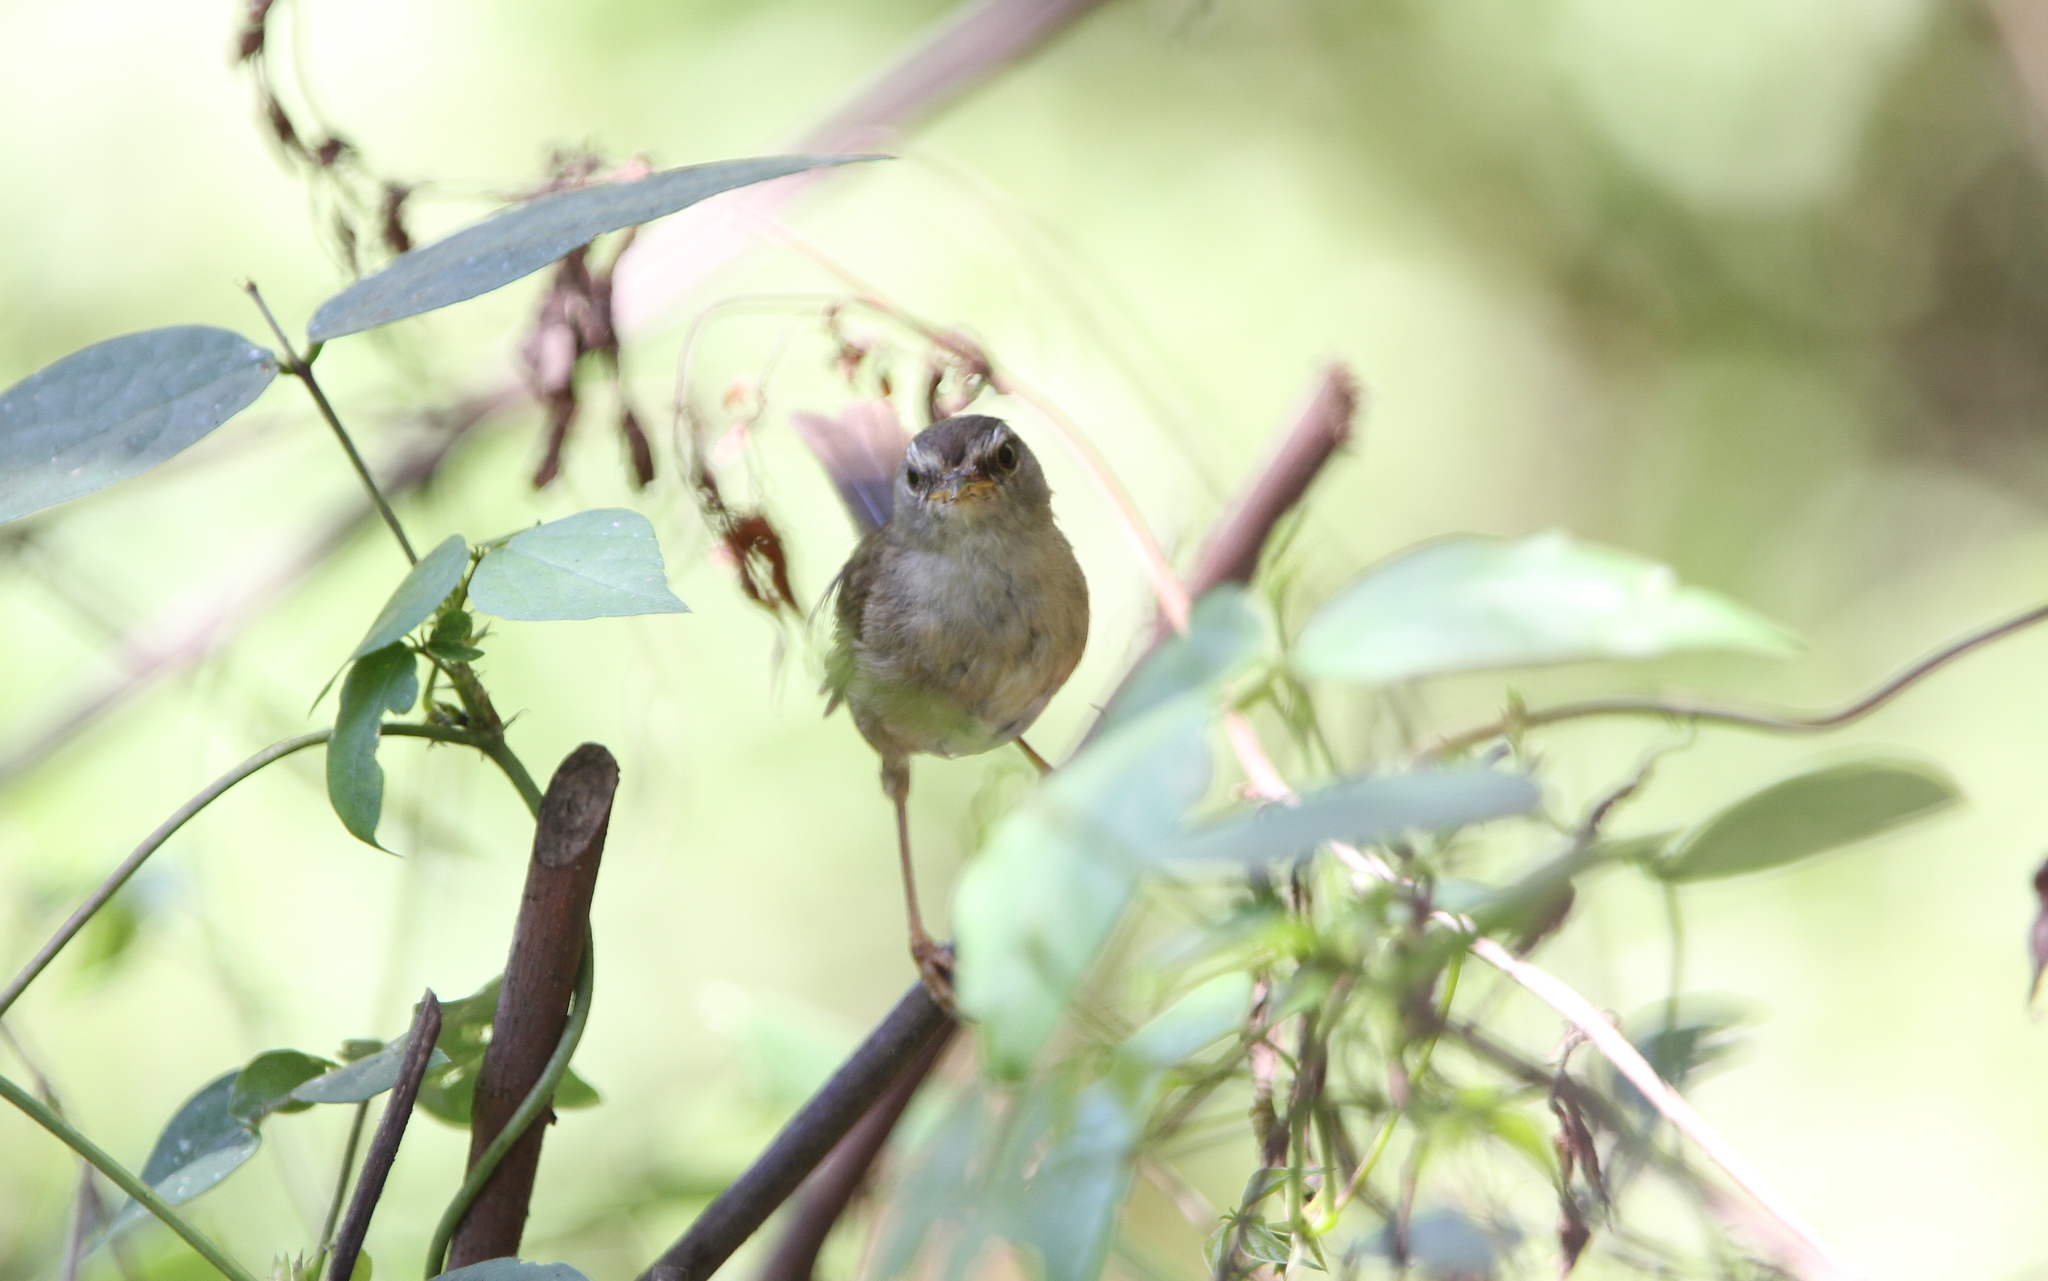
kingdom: Animalia
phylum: Chordata
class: Aves
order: Passeriformes
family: Cettiidae
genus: Horornis
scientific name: Horornis flavolivaceus
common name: Aberrant bush warbler
